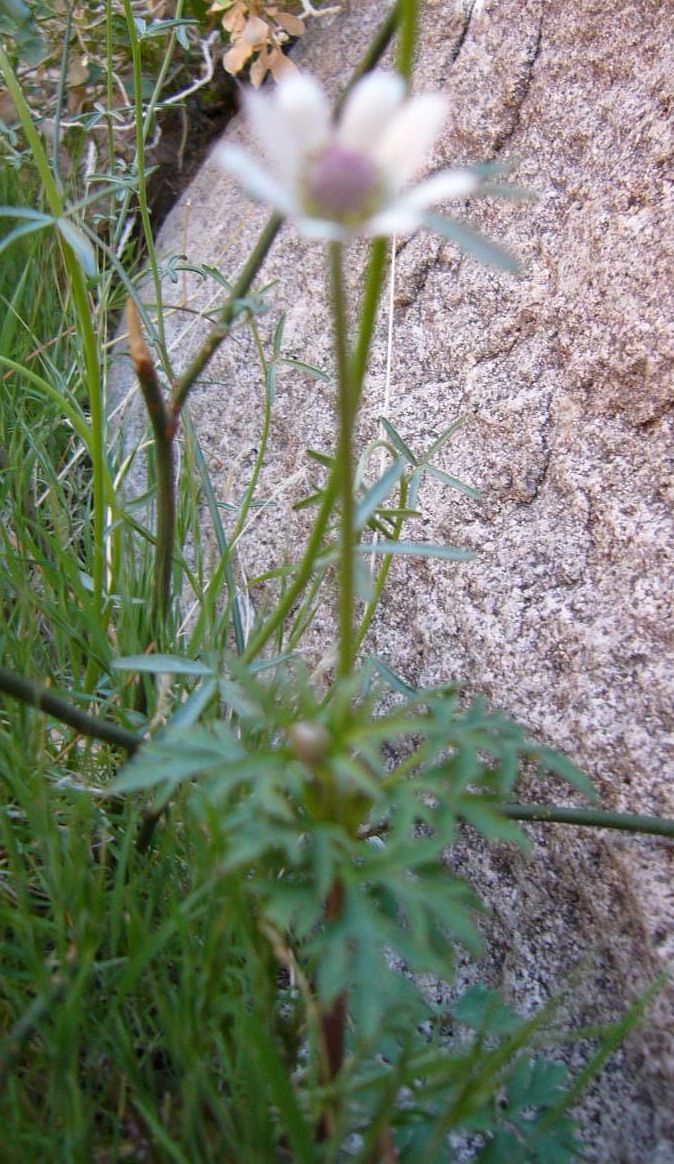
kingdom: Plantae
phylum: Tracheophyta
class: Magnoliopsida
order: Ranunculales
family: Ranunculaceae
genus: Anemone
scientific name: Anemone tuberosa
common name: Desert anemone
